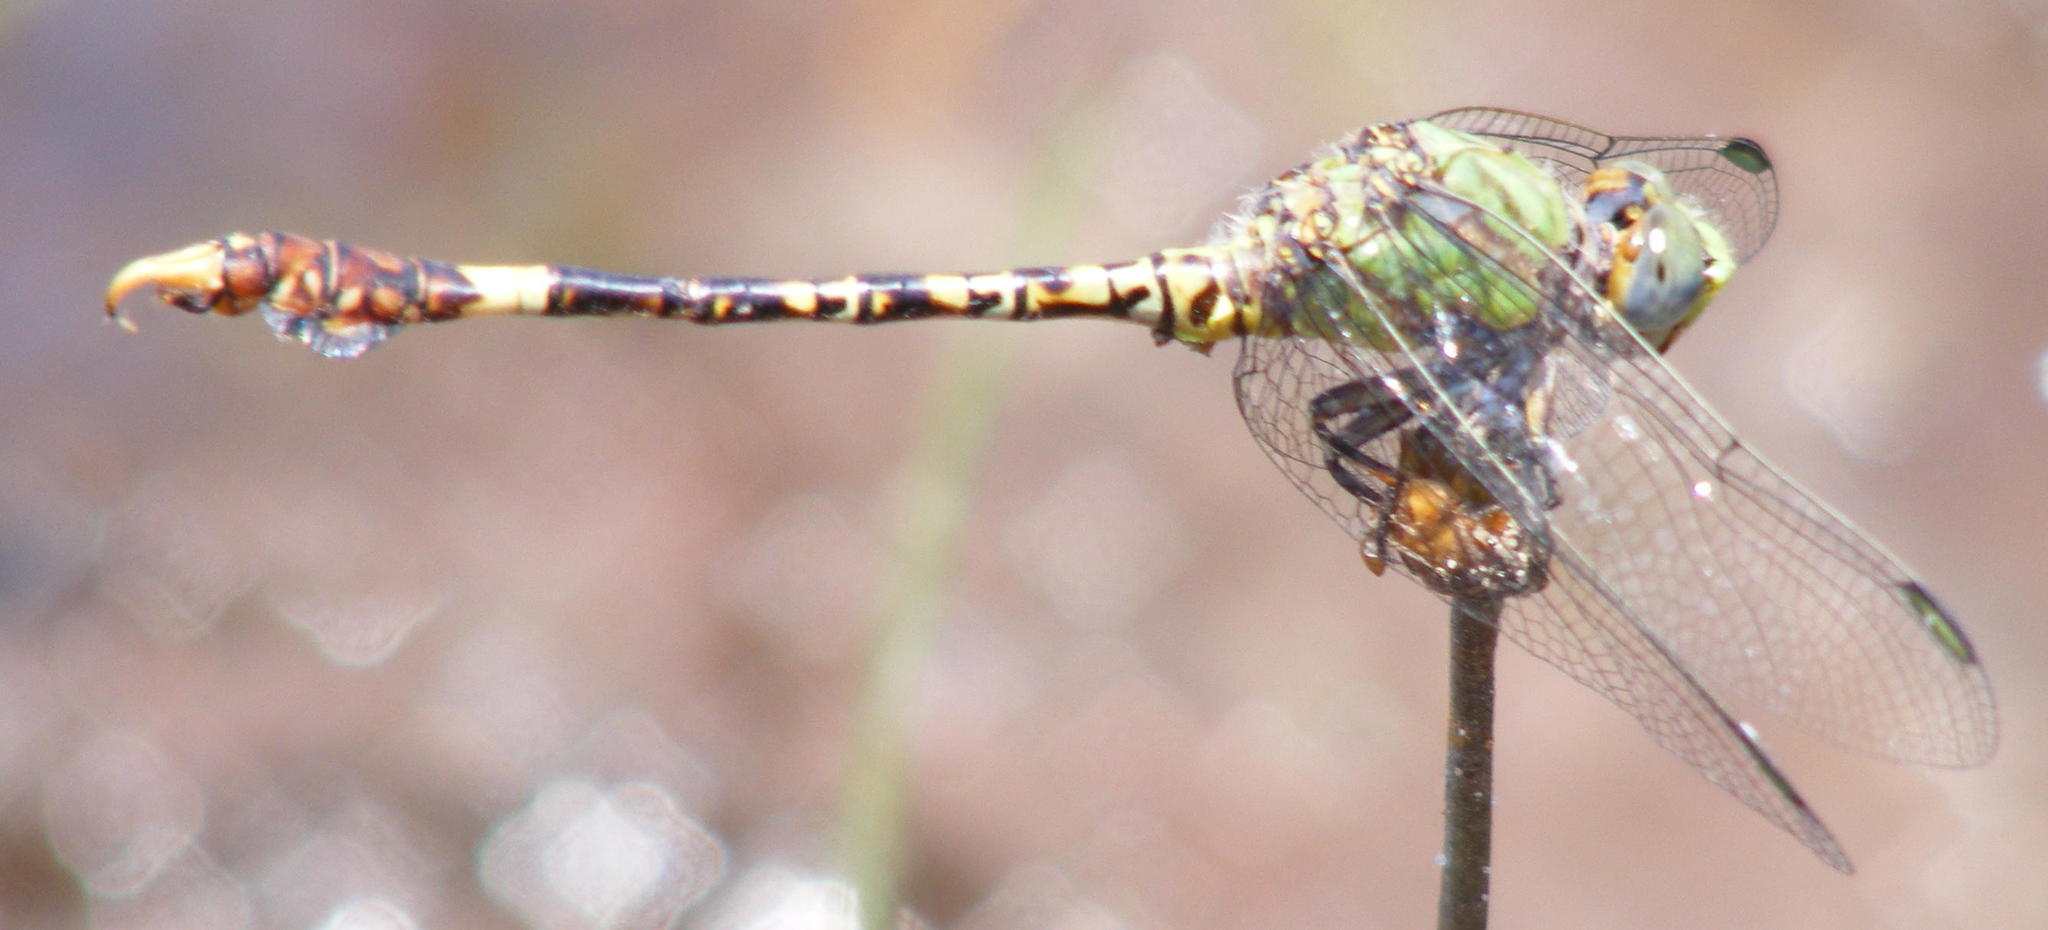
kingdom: Animalia
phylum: Arthropoda
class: Insecta
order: Odonata
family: Gomphidae
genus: Paragomphus
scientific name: Paragomphus genei
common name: Common hooktail
